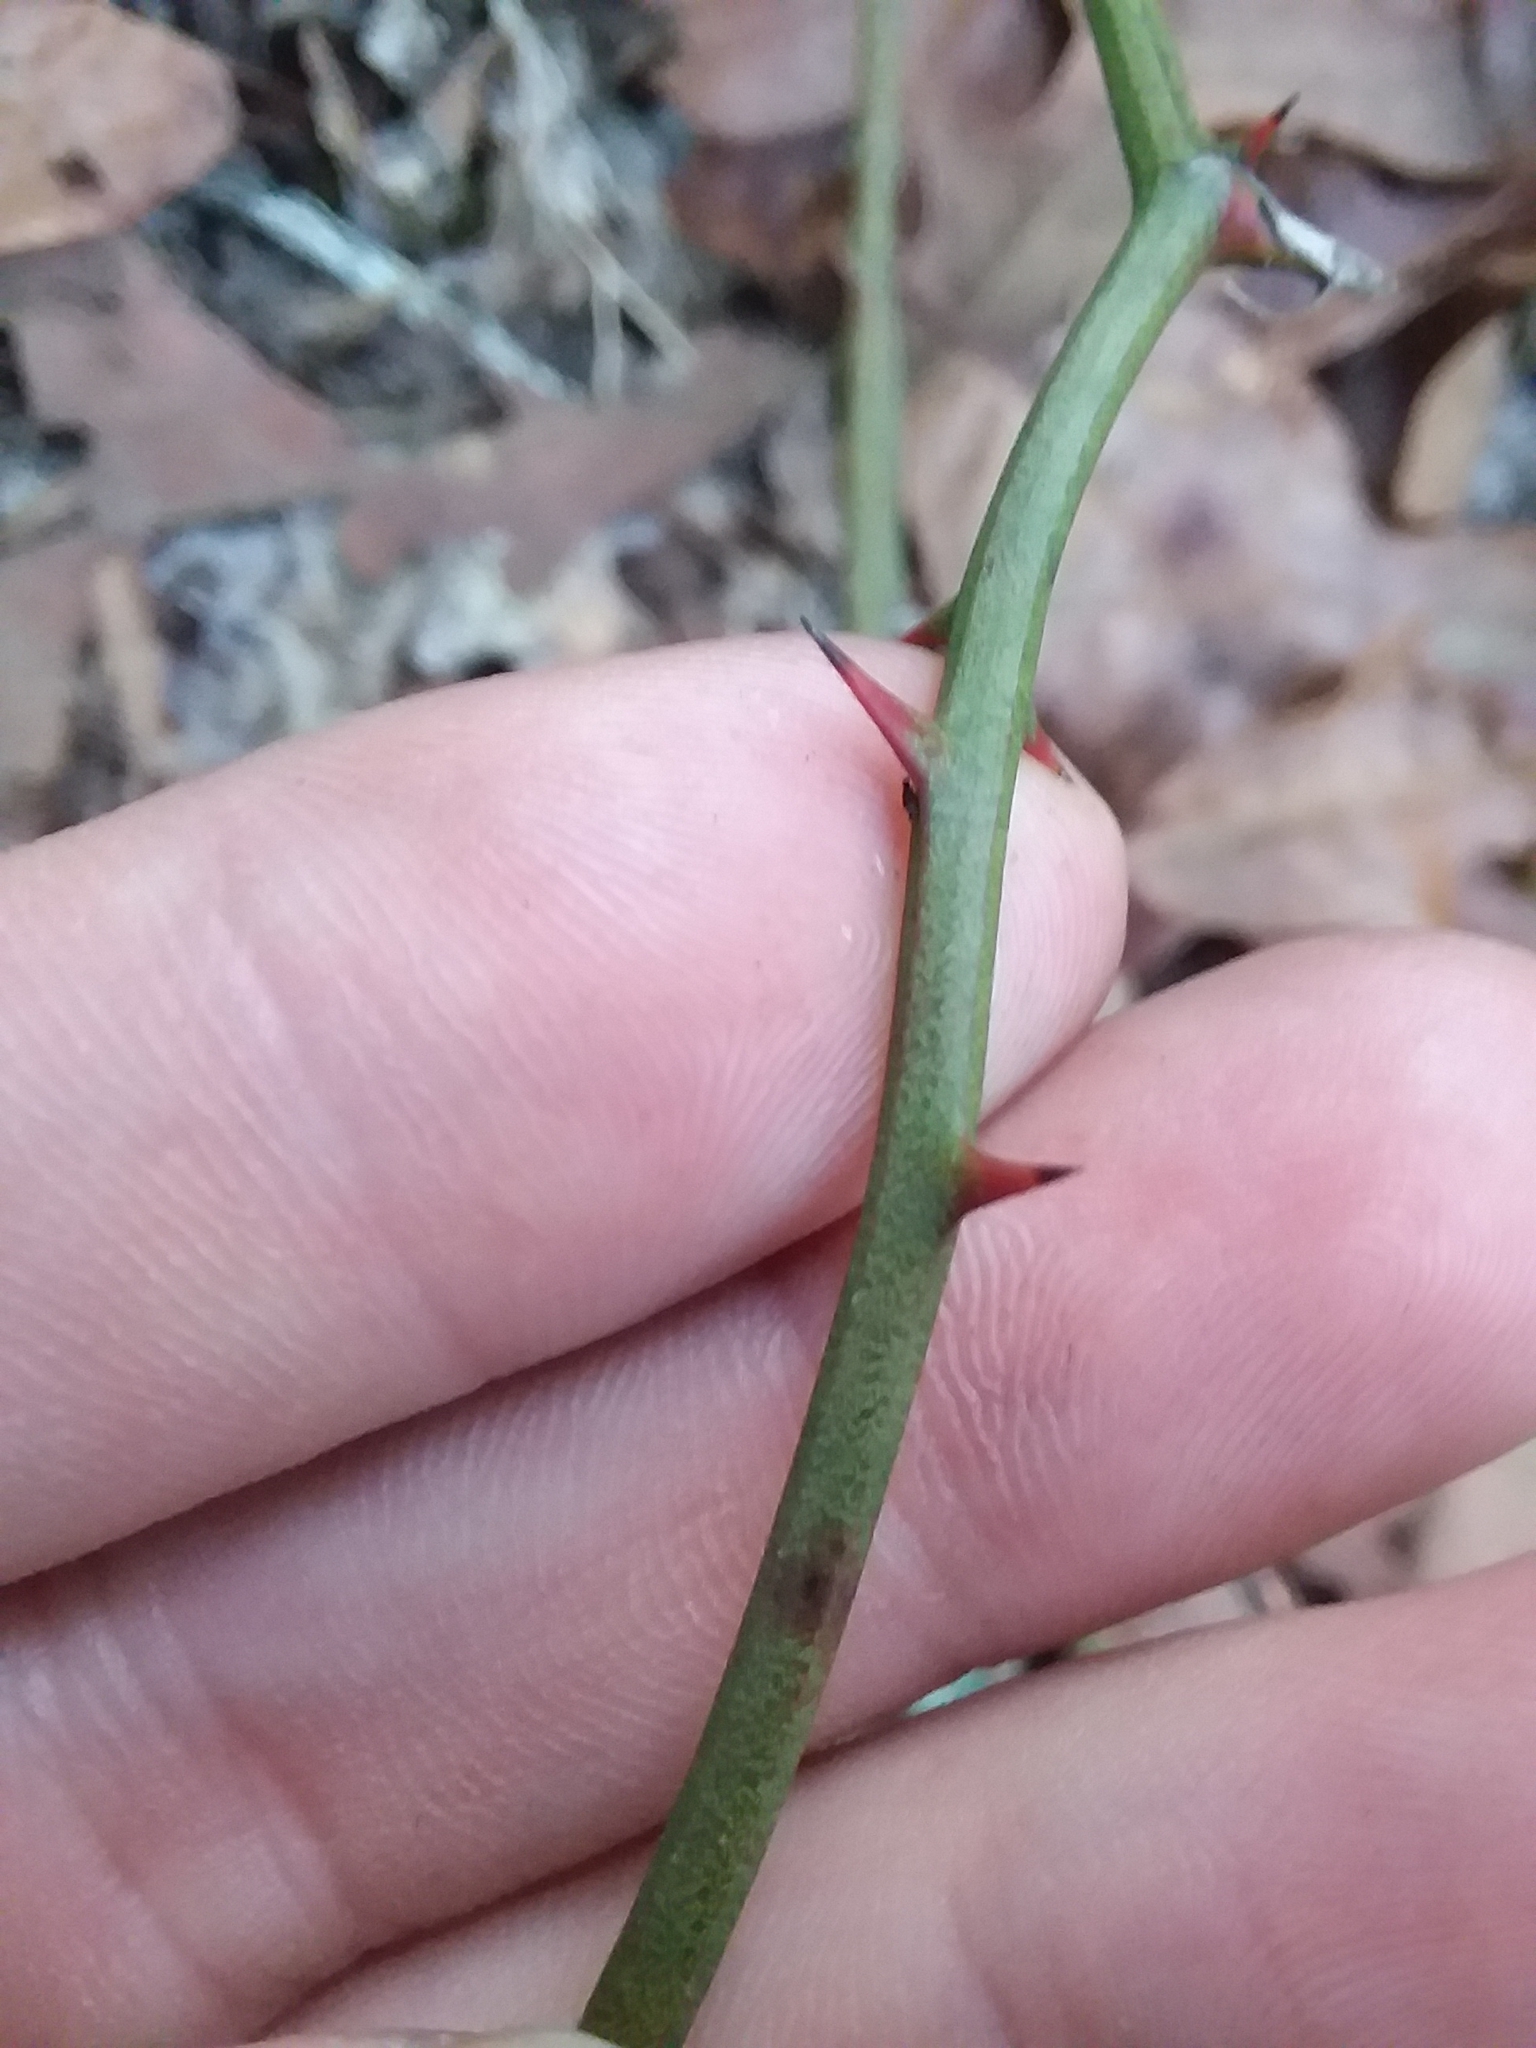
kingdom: Plantae
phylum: Tracheophyta
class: Liliopsida
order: Liliales
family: Smilacaceae
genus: Smilax
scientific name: Smilax bona-nox
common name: Catbrier
